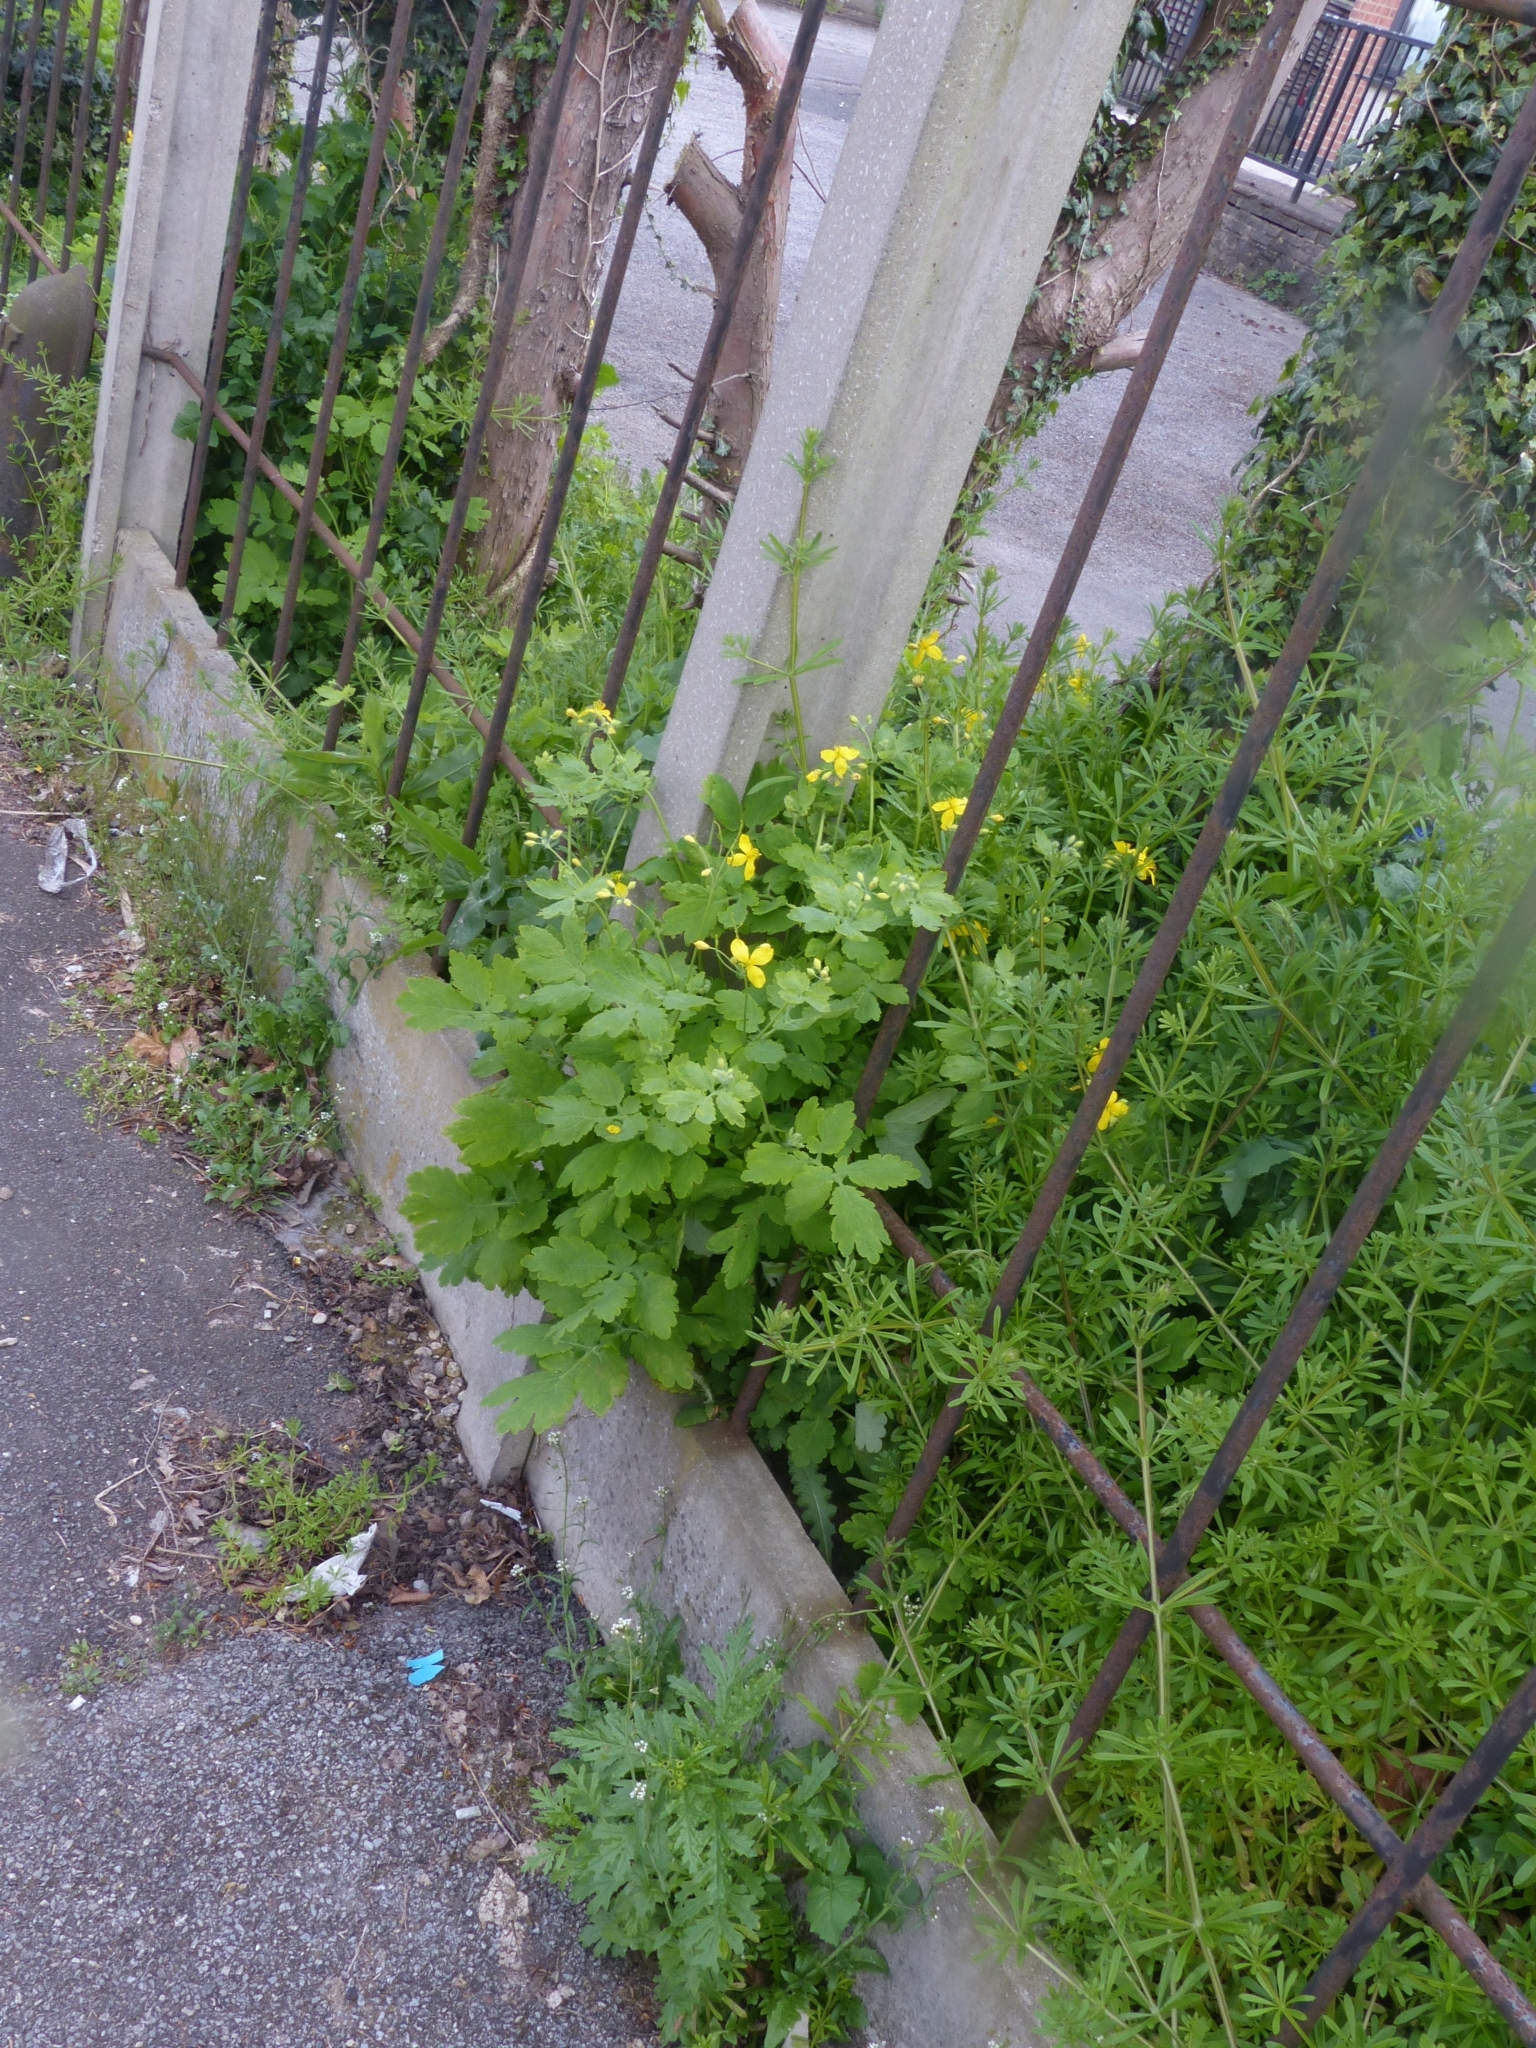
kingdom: Plantae
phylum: Tracheophyta
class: Magnoliopsida
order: Ranunculales
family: Papaveraceae
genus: Chelidonium
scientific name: Chelidonium majus
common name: Greater celandine
